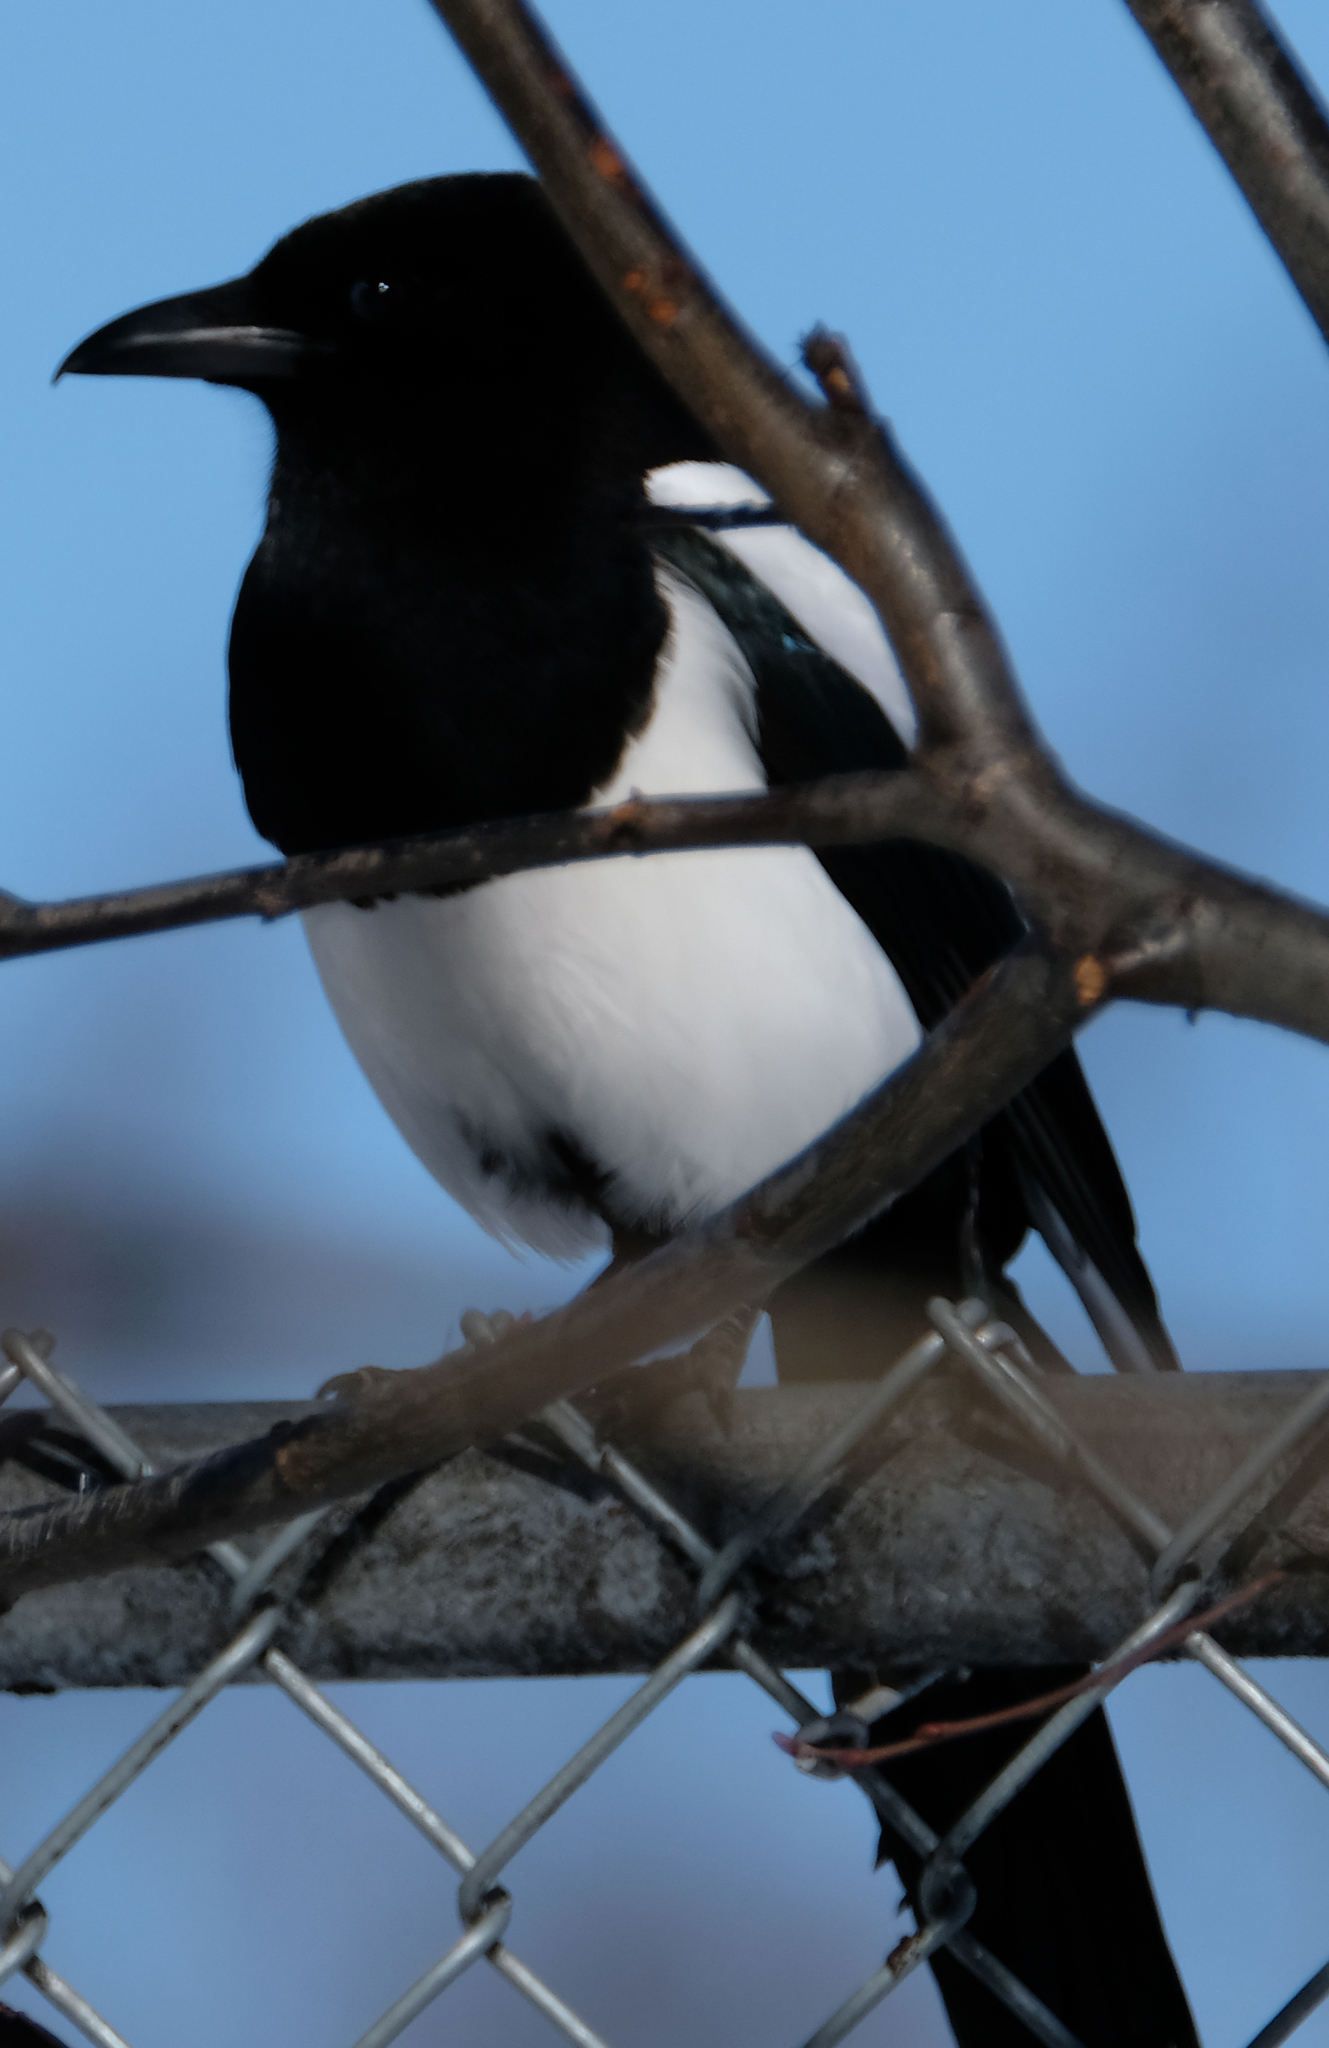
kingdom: Animalia
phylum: Chordata
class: Aves
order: Passeriformes
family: Corvidae
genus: Pica
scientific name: Pica hudsonia
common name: Black-billed magpie
